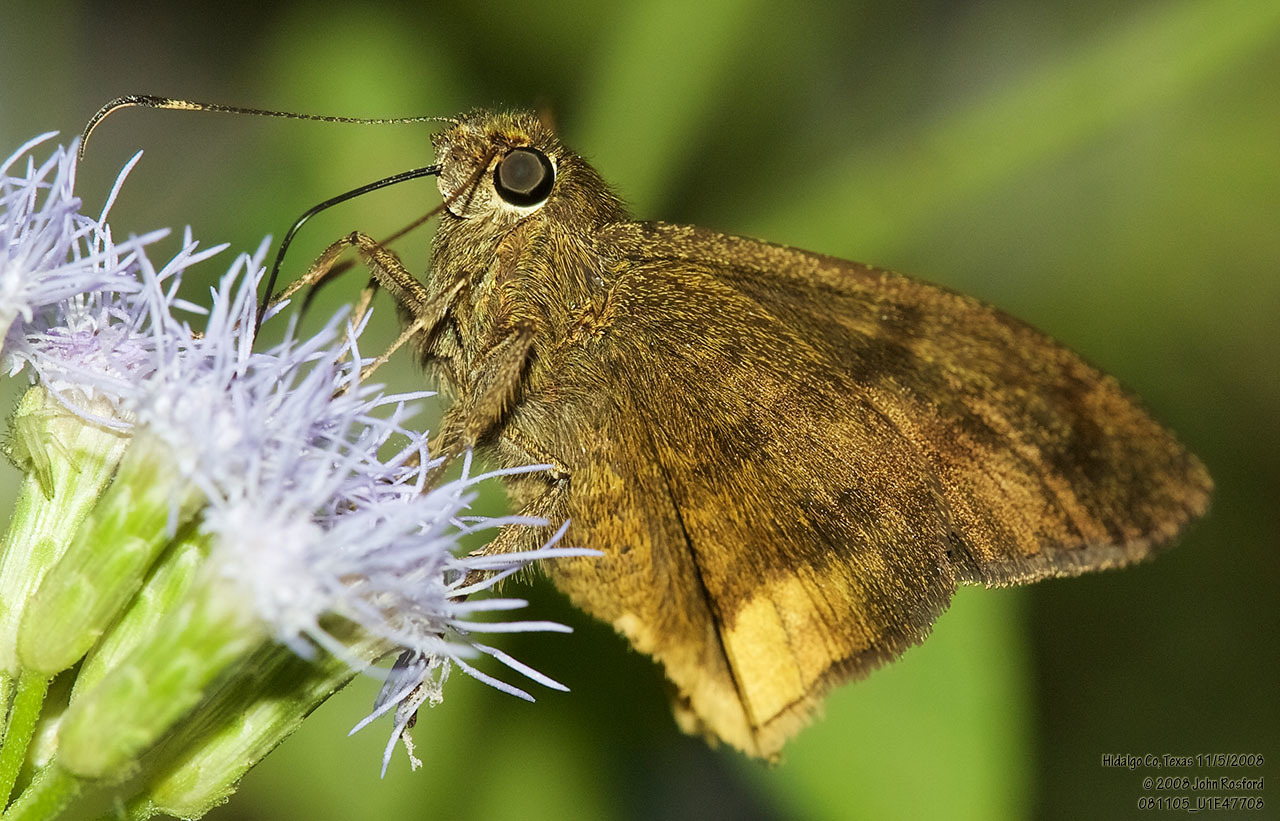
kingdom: Animalia
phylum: Arthropoda
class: Insecta
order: Lepidoptera
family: Hesperiidae
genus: Astraptes
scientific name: Astraptes anaphus
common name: Yellow-tipped flasher
